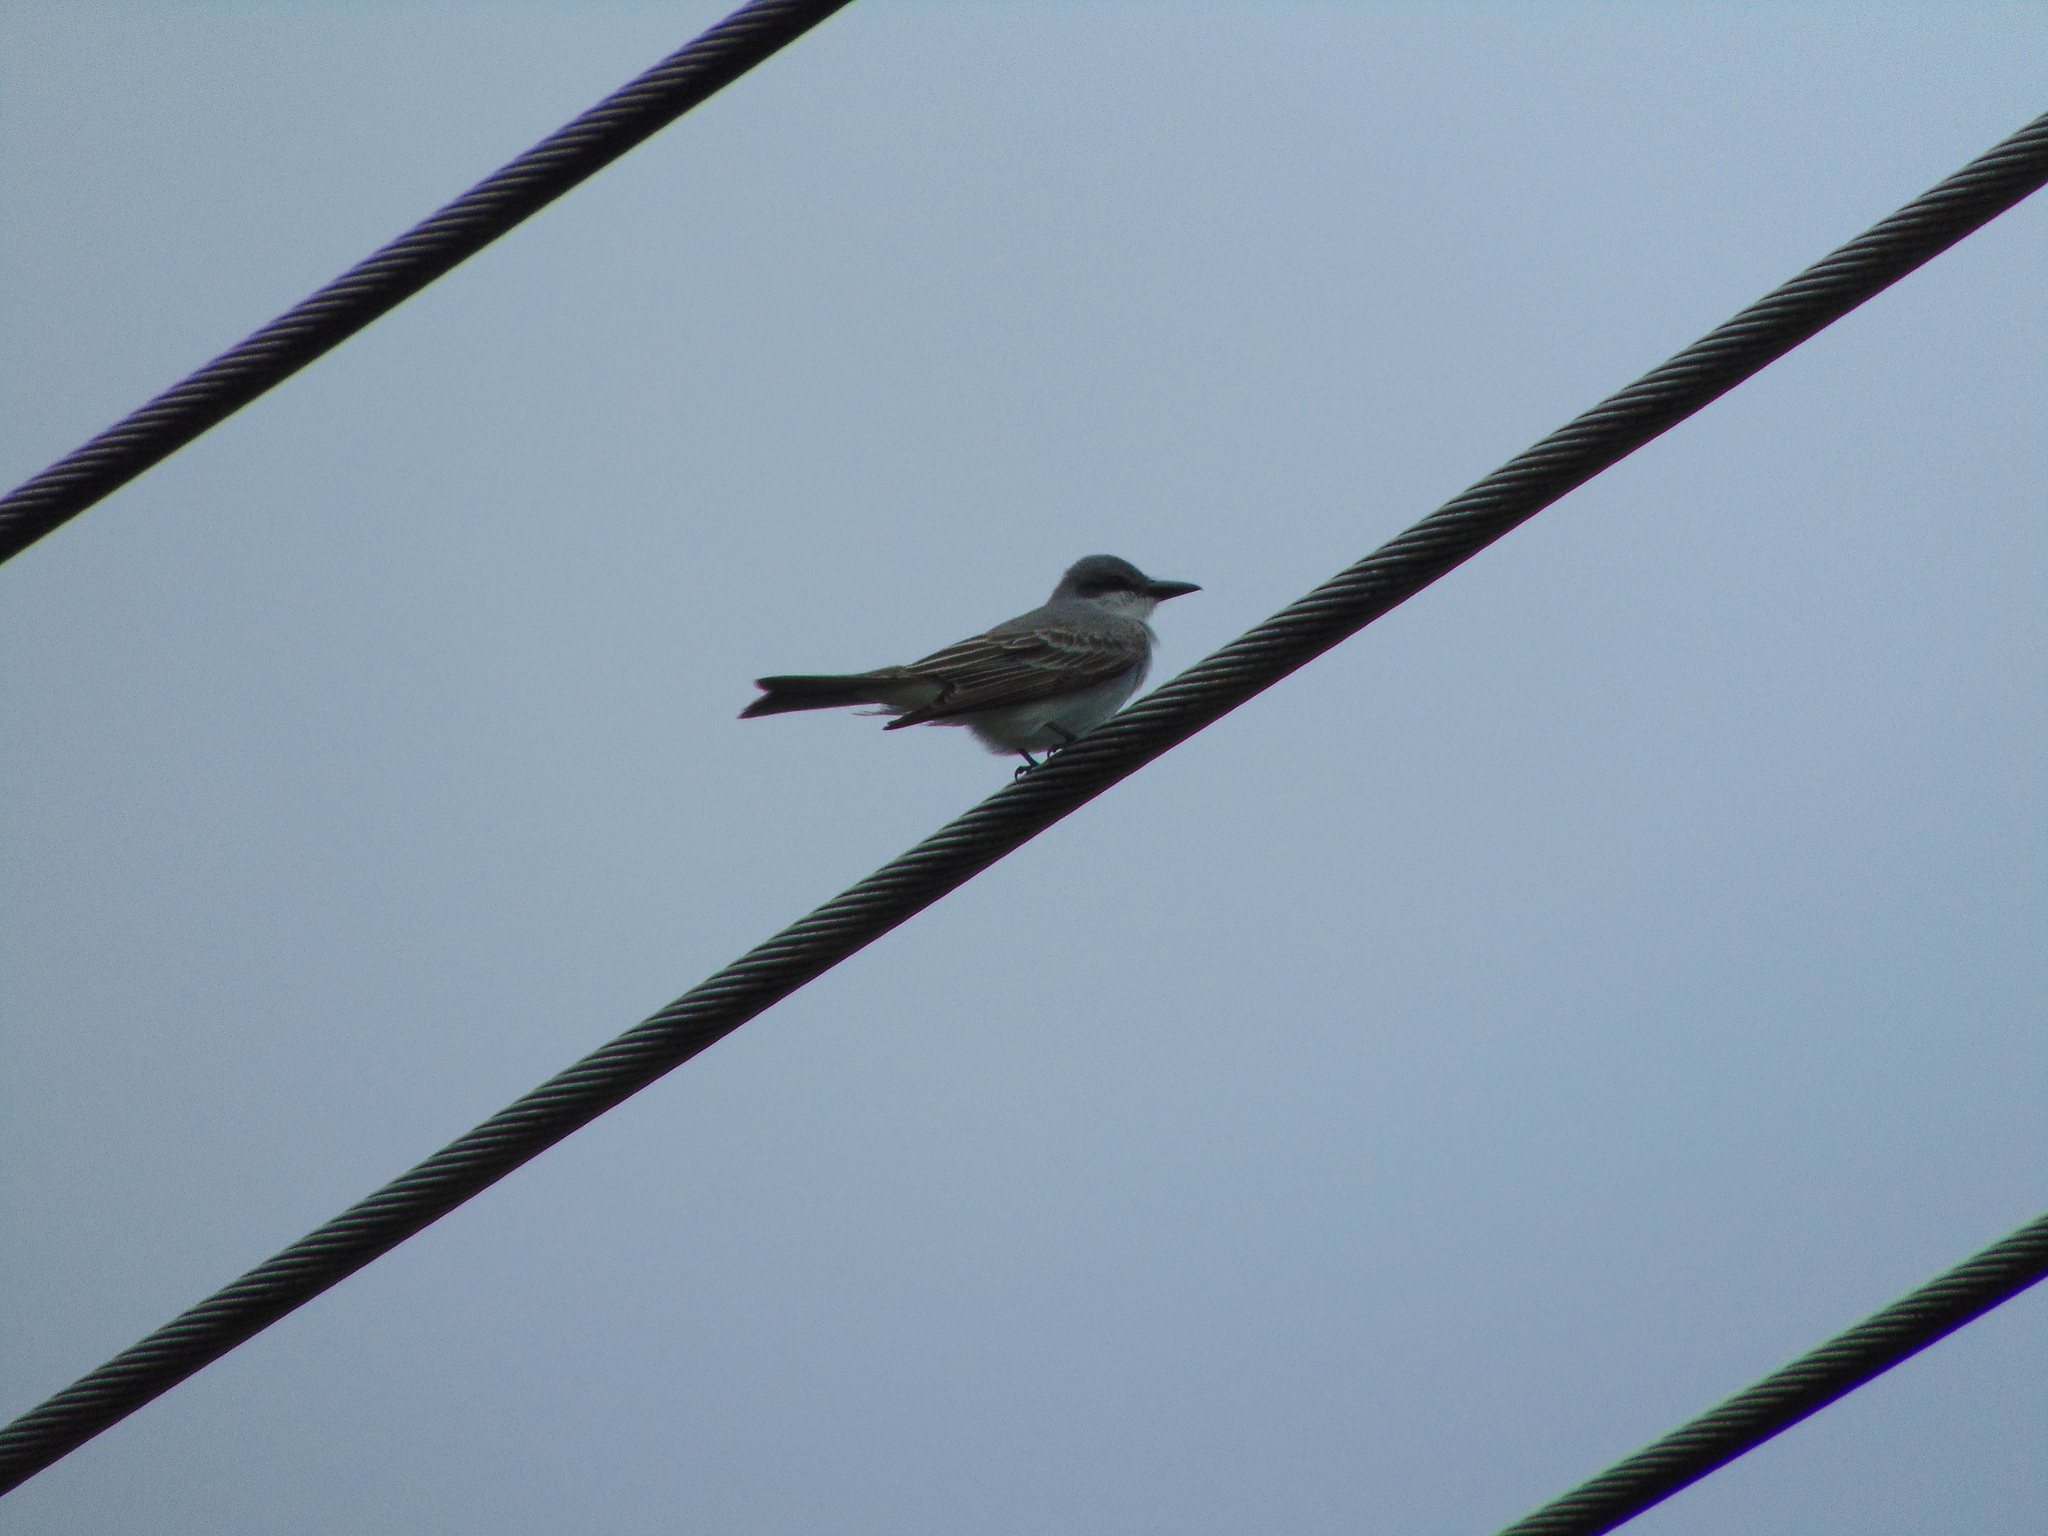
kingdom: Animalia
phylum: Chordata
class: Aves
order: Passeriformes
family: Tyrannidae
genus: Tyrannus
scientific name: Tyrannus dominicensis
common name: Gray kingbird
